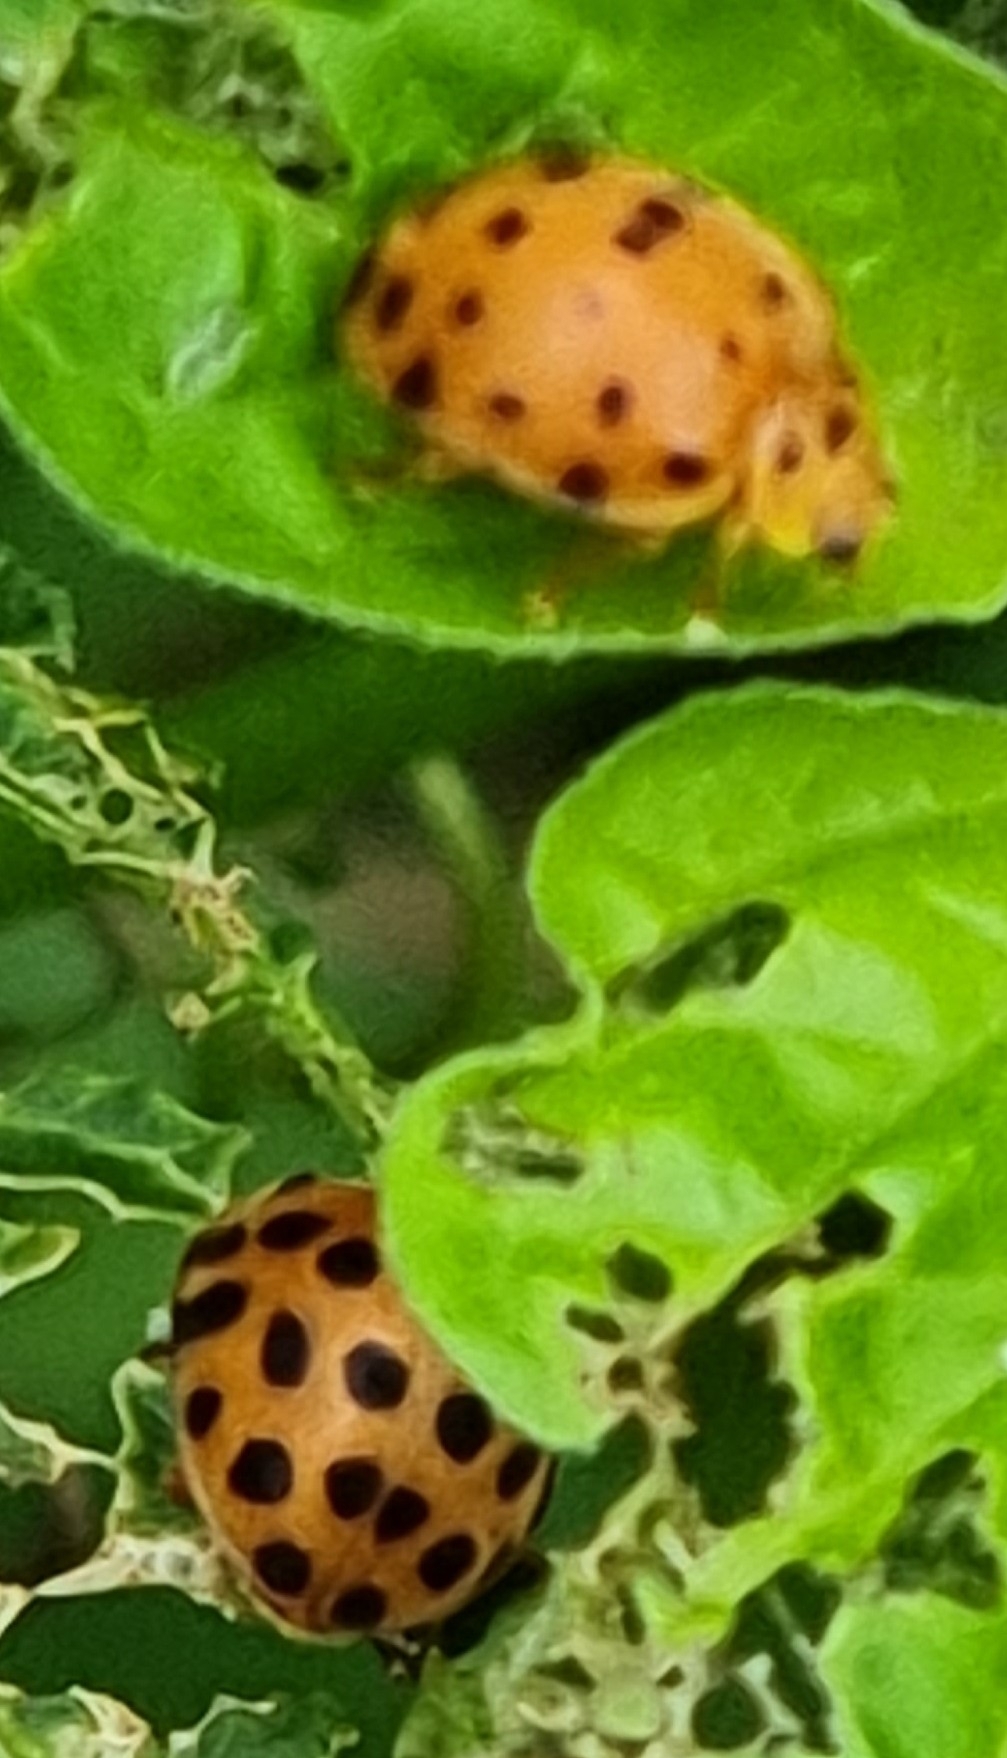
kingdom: Animalia
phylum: Arthropoda
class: Insecta
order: Coleoptera
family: Coccinellidae
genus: Henosepilachna
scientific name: Henosepilachna vigintioctopunctata
